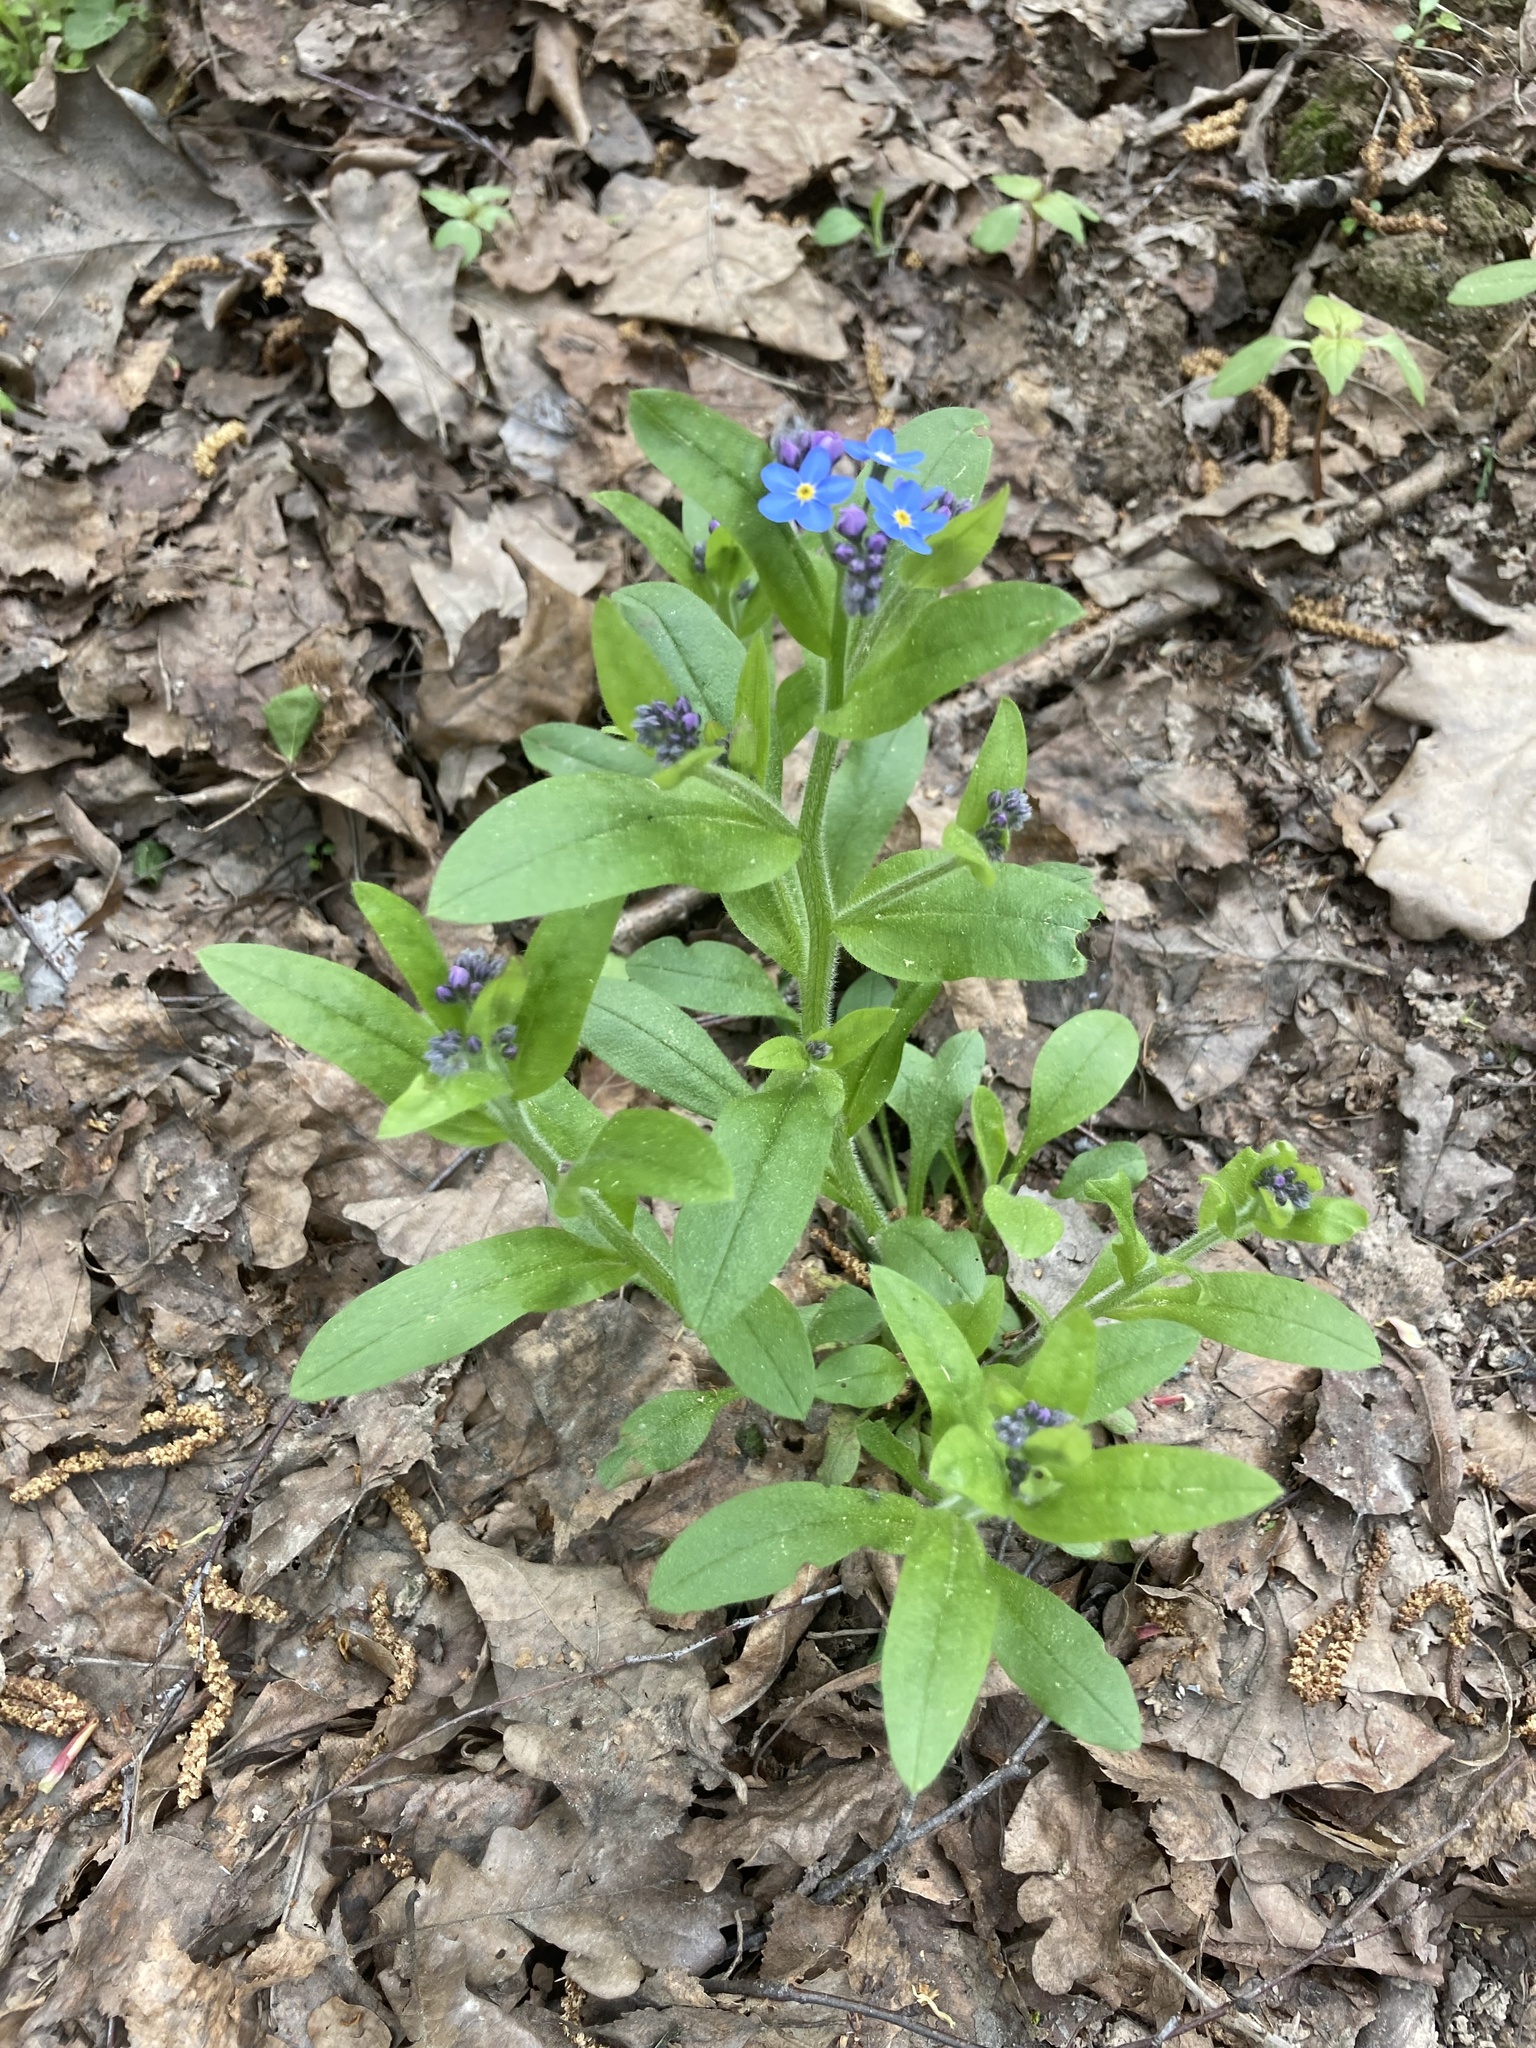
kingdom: Plantae
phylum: Tracheophyta
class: Magnoliopsida
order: Boraginales
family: Boraginaceae
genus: Myosotis
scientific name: Myosotis sylvatica
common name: Wood forget-me-not
